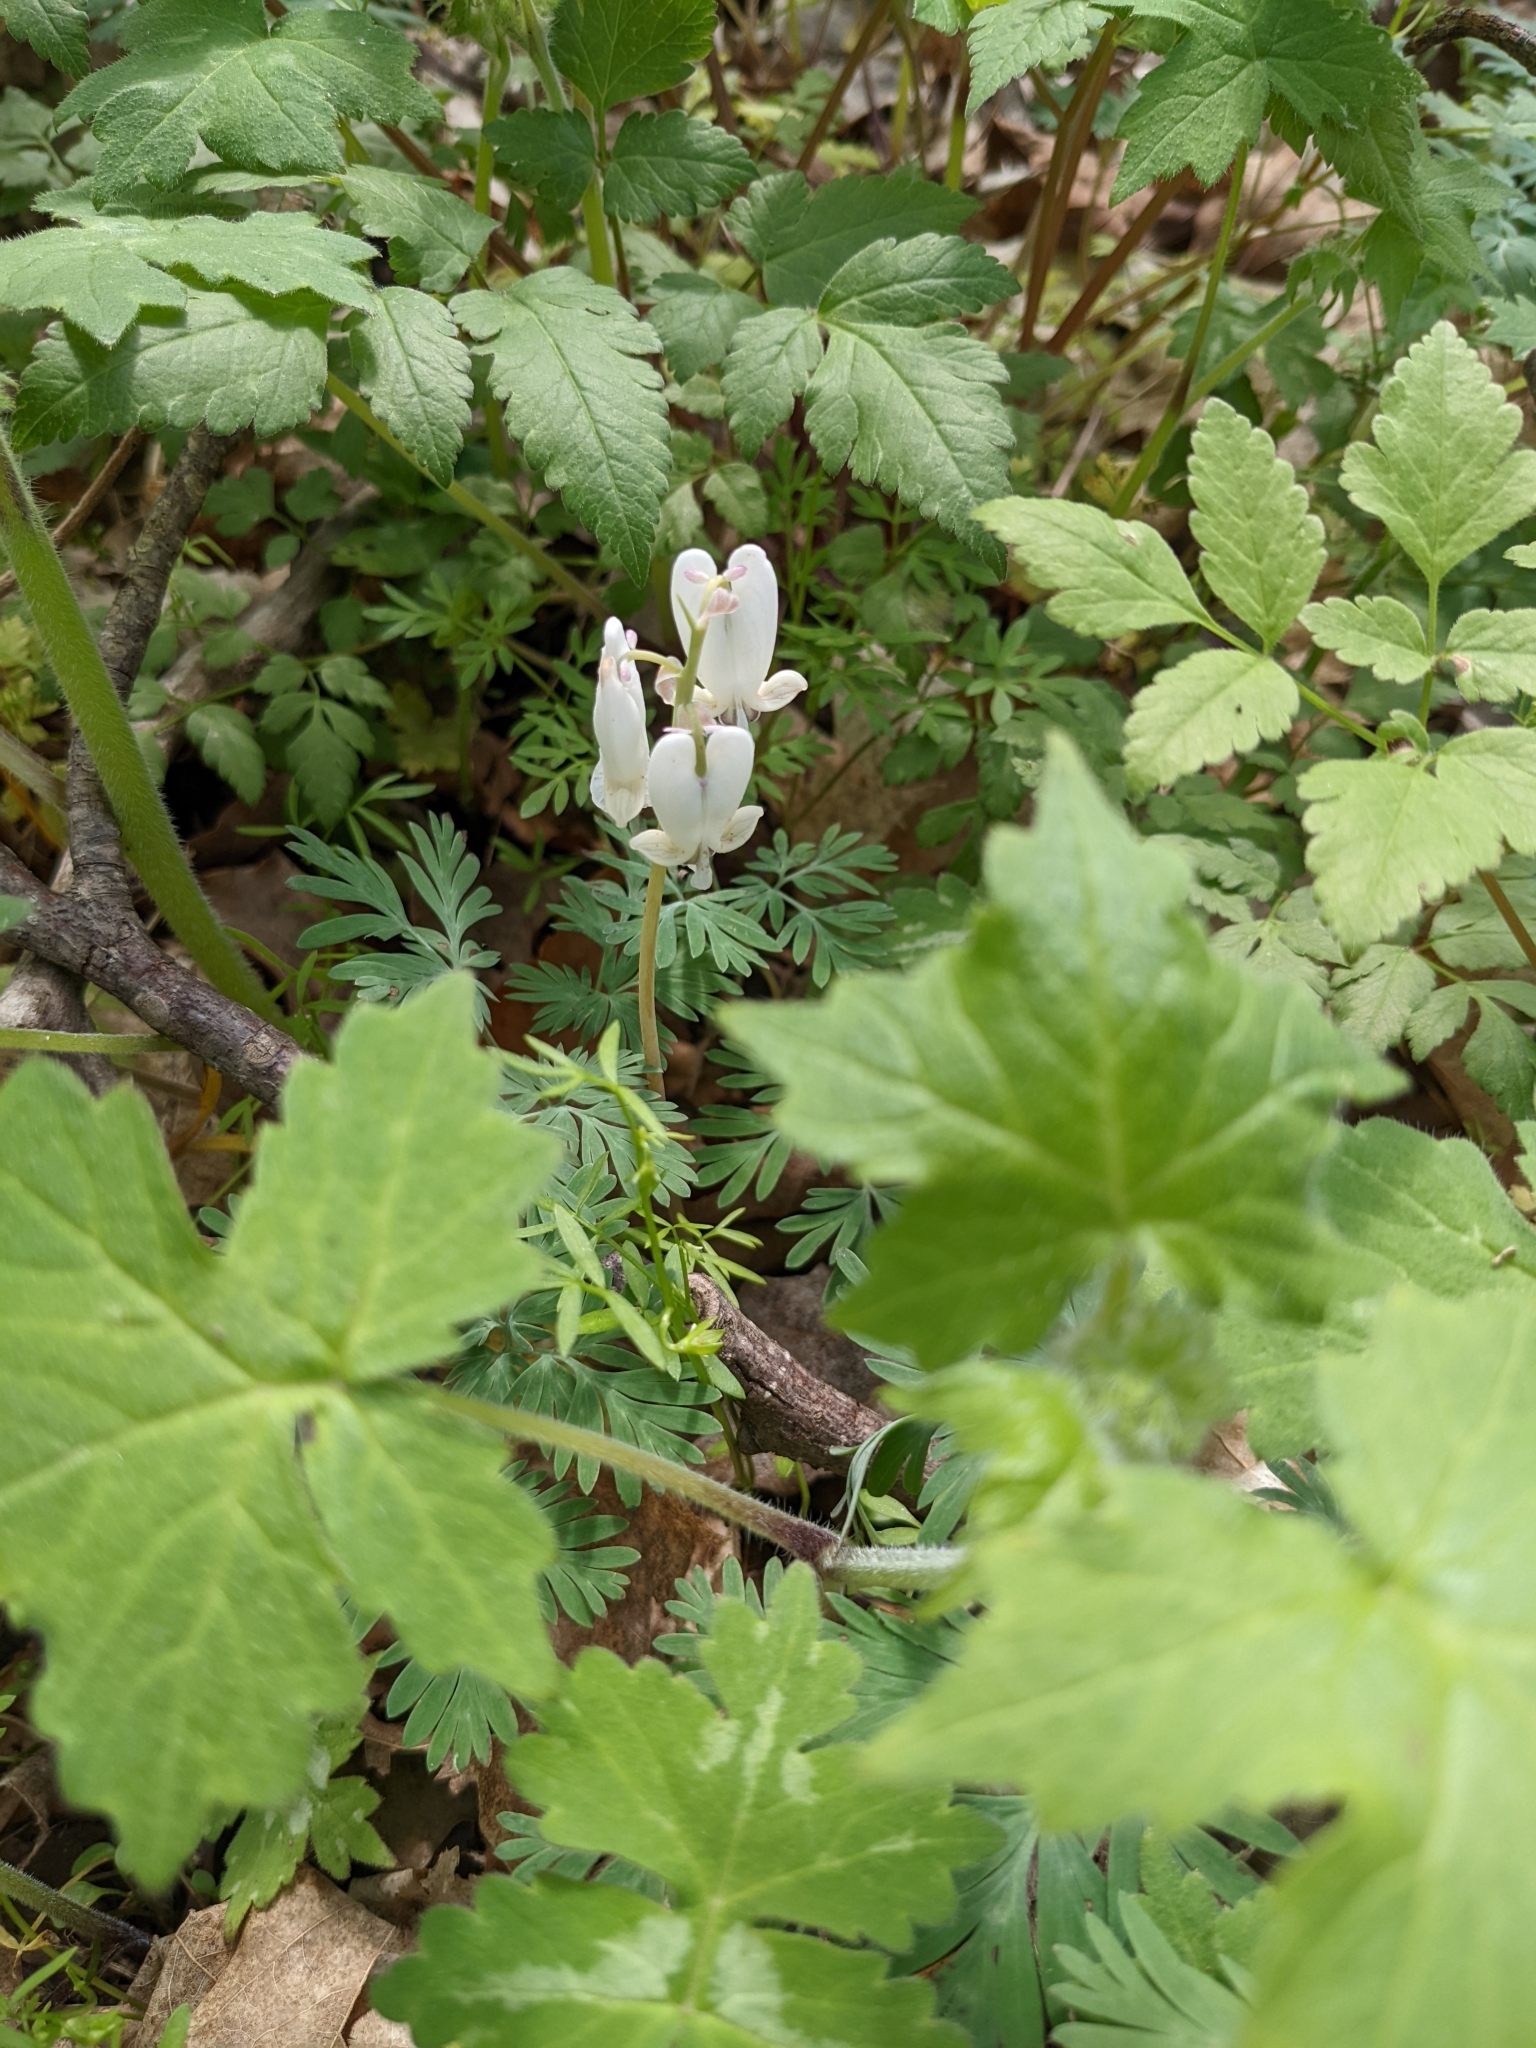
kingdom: Plantae
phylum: Tracheophyta
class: Magnoliopsida
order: Ranunculales
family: Papaveraceae
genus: Dicentra
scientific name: Dicentra canadensis
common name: Squirrel-corn
